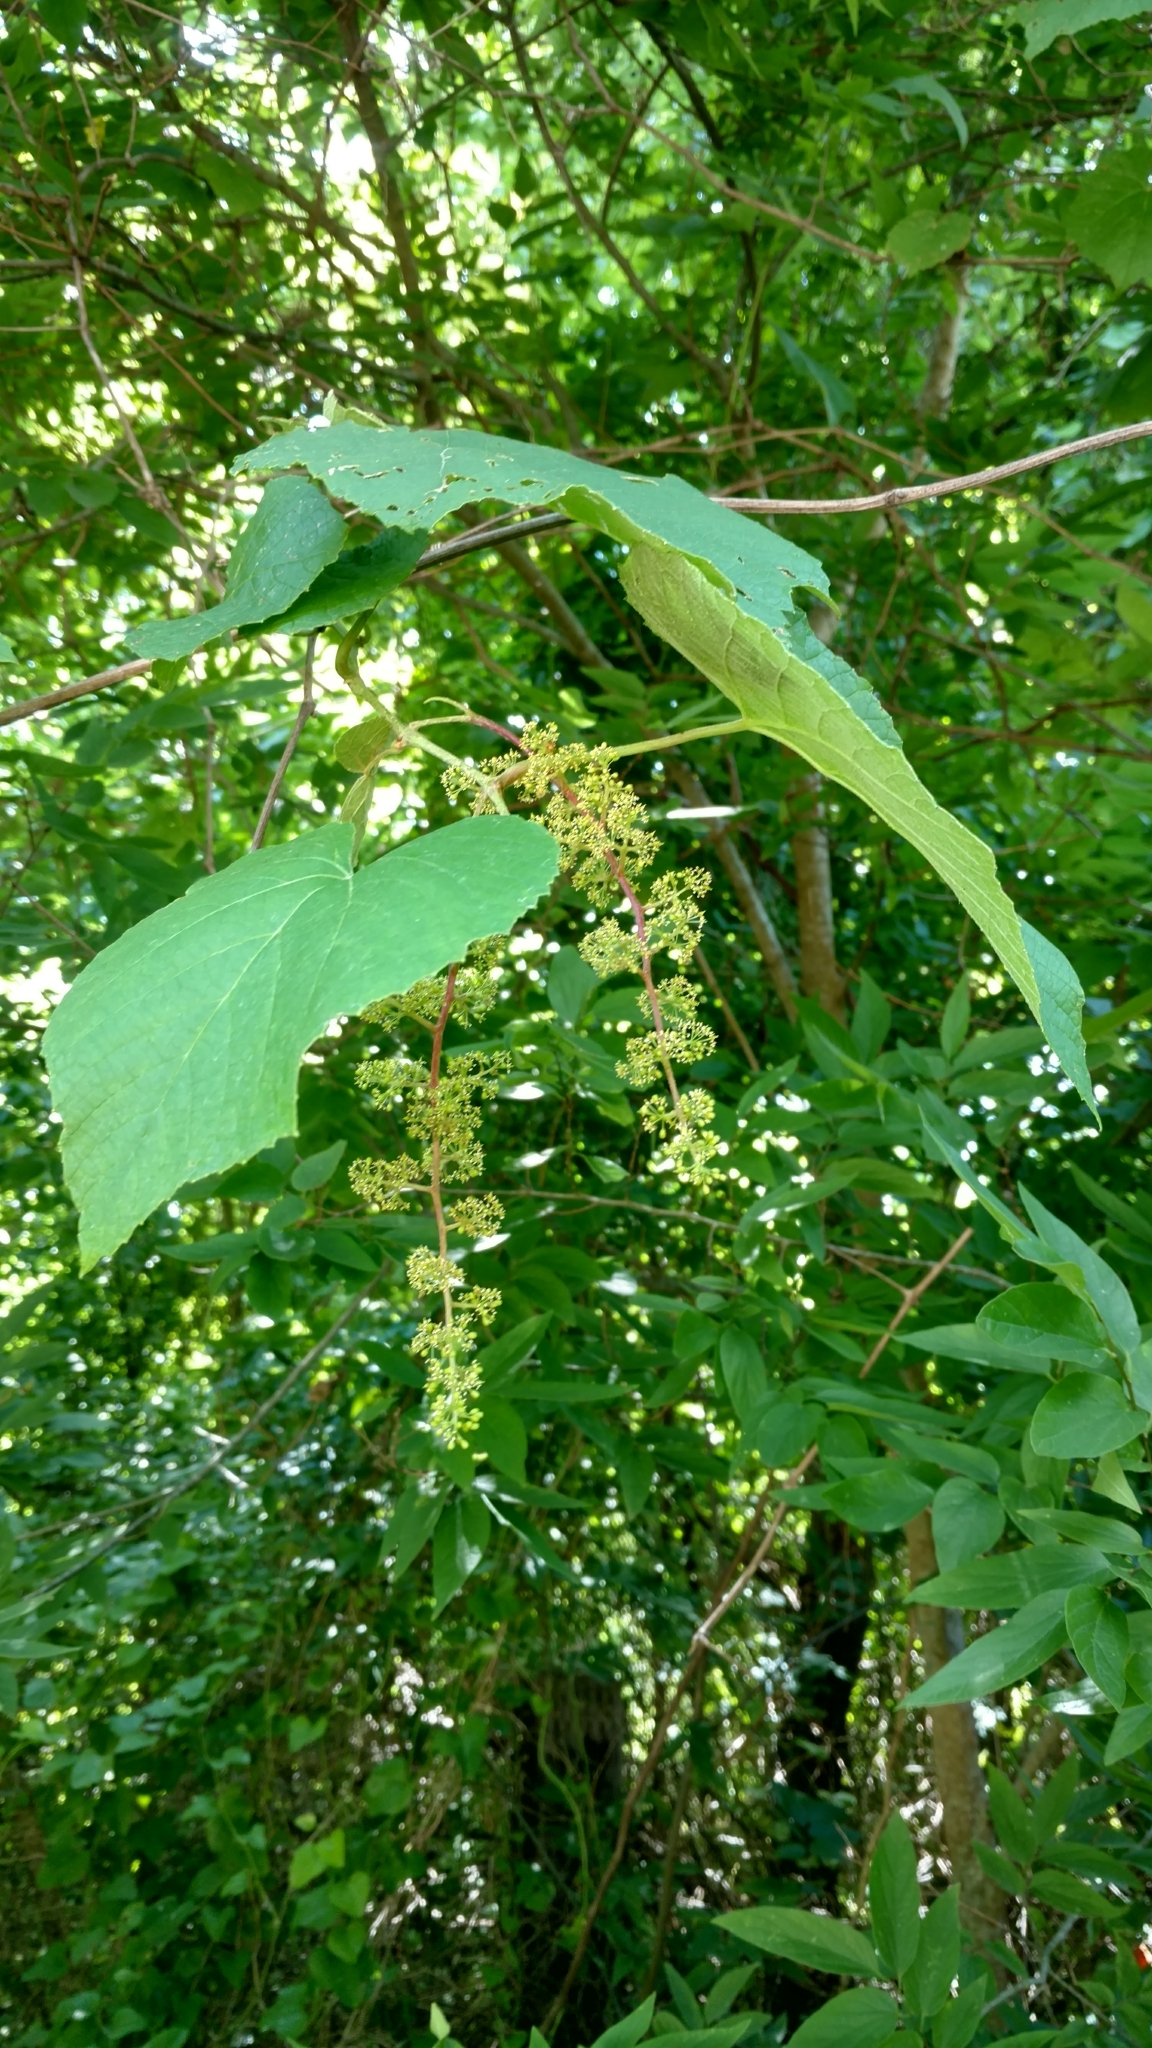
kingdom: Plantae
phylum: Tracheophyta
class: Magnoliopsida
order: Vitales
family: Vitaceae
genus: Vitis
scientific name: Vitis cinerea
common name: Ashy grape
